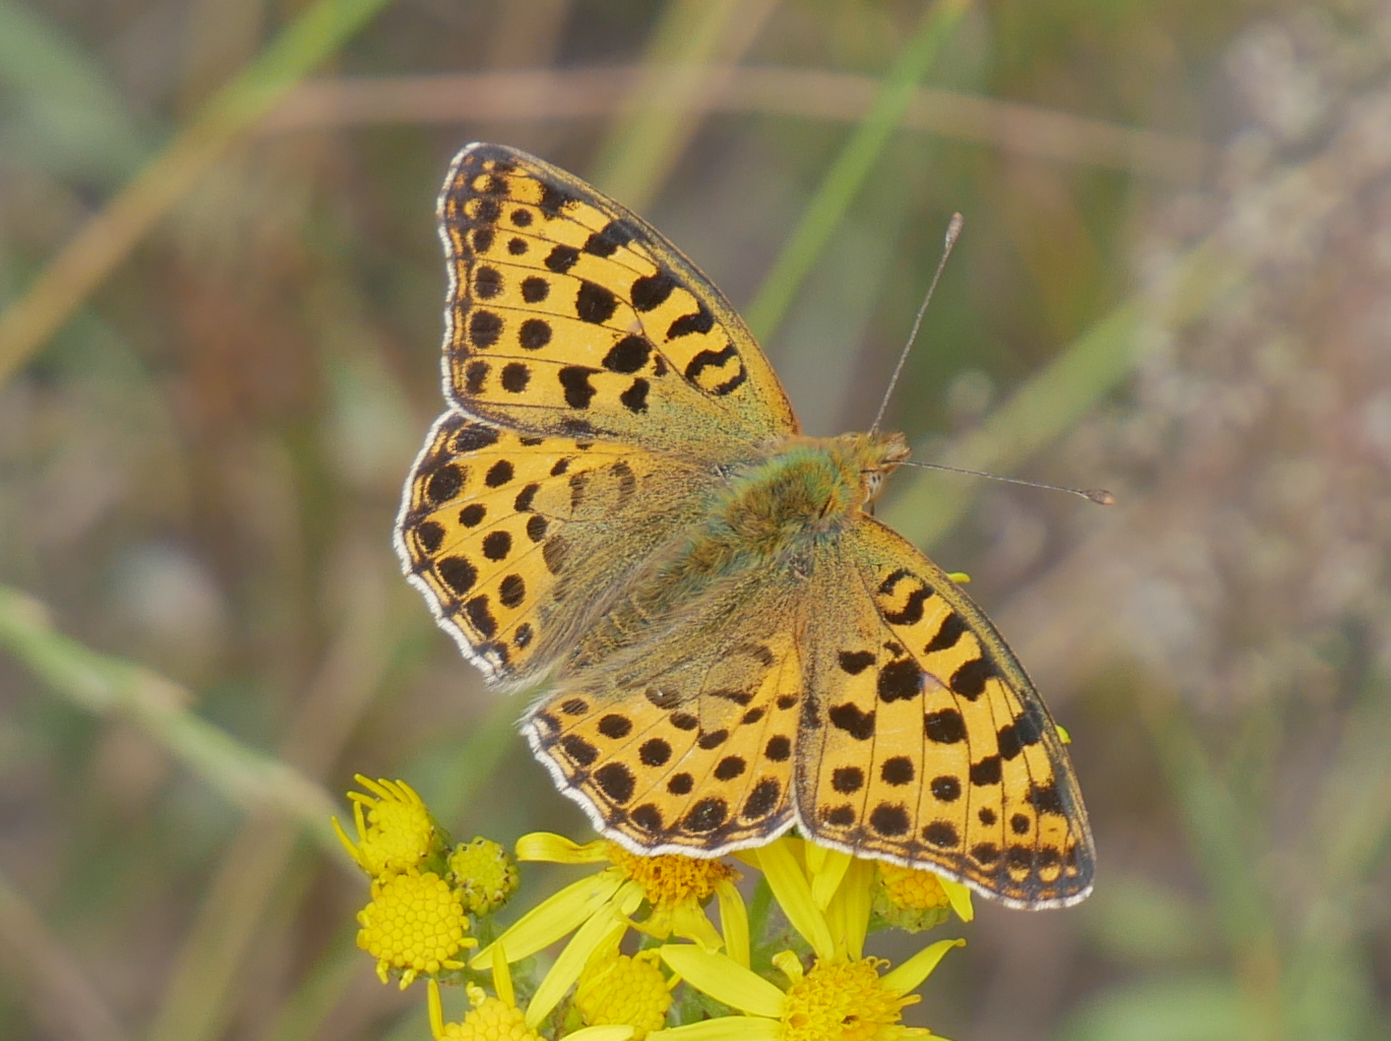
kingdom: Animalia
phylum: Arthropoda
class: Insecta
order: Lepidoptera
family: Nymphalidae
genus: Issoria
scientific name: Issoria lathonia
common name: Queen of spain fritillary
